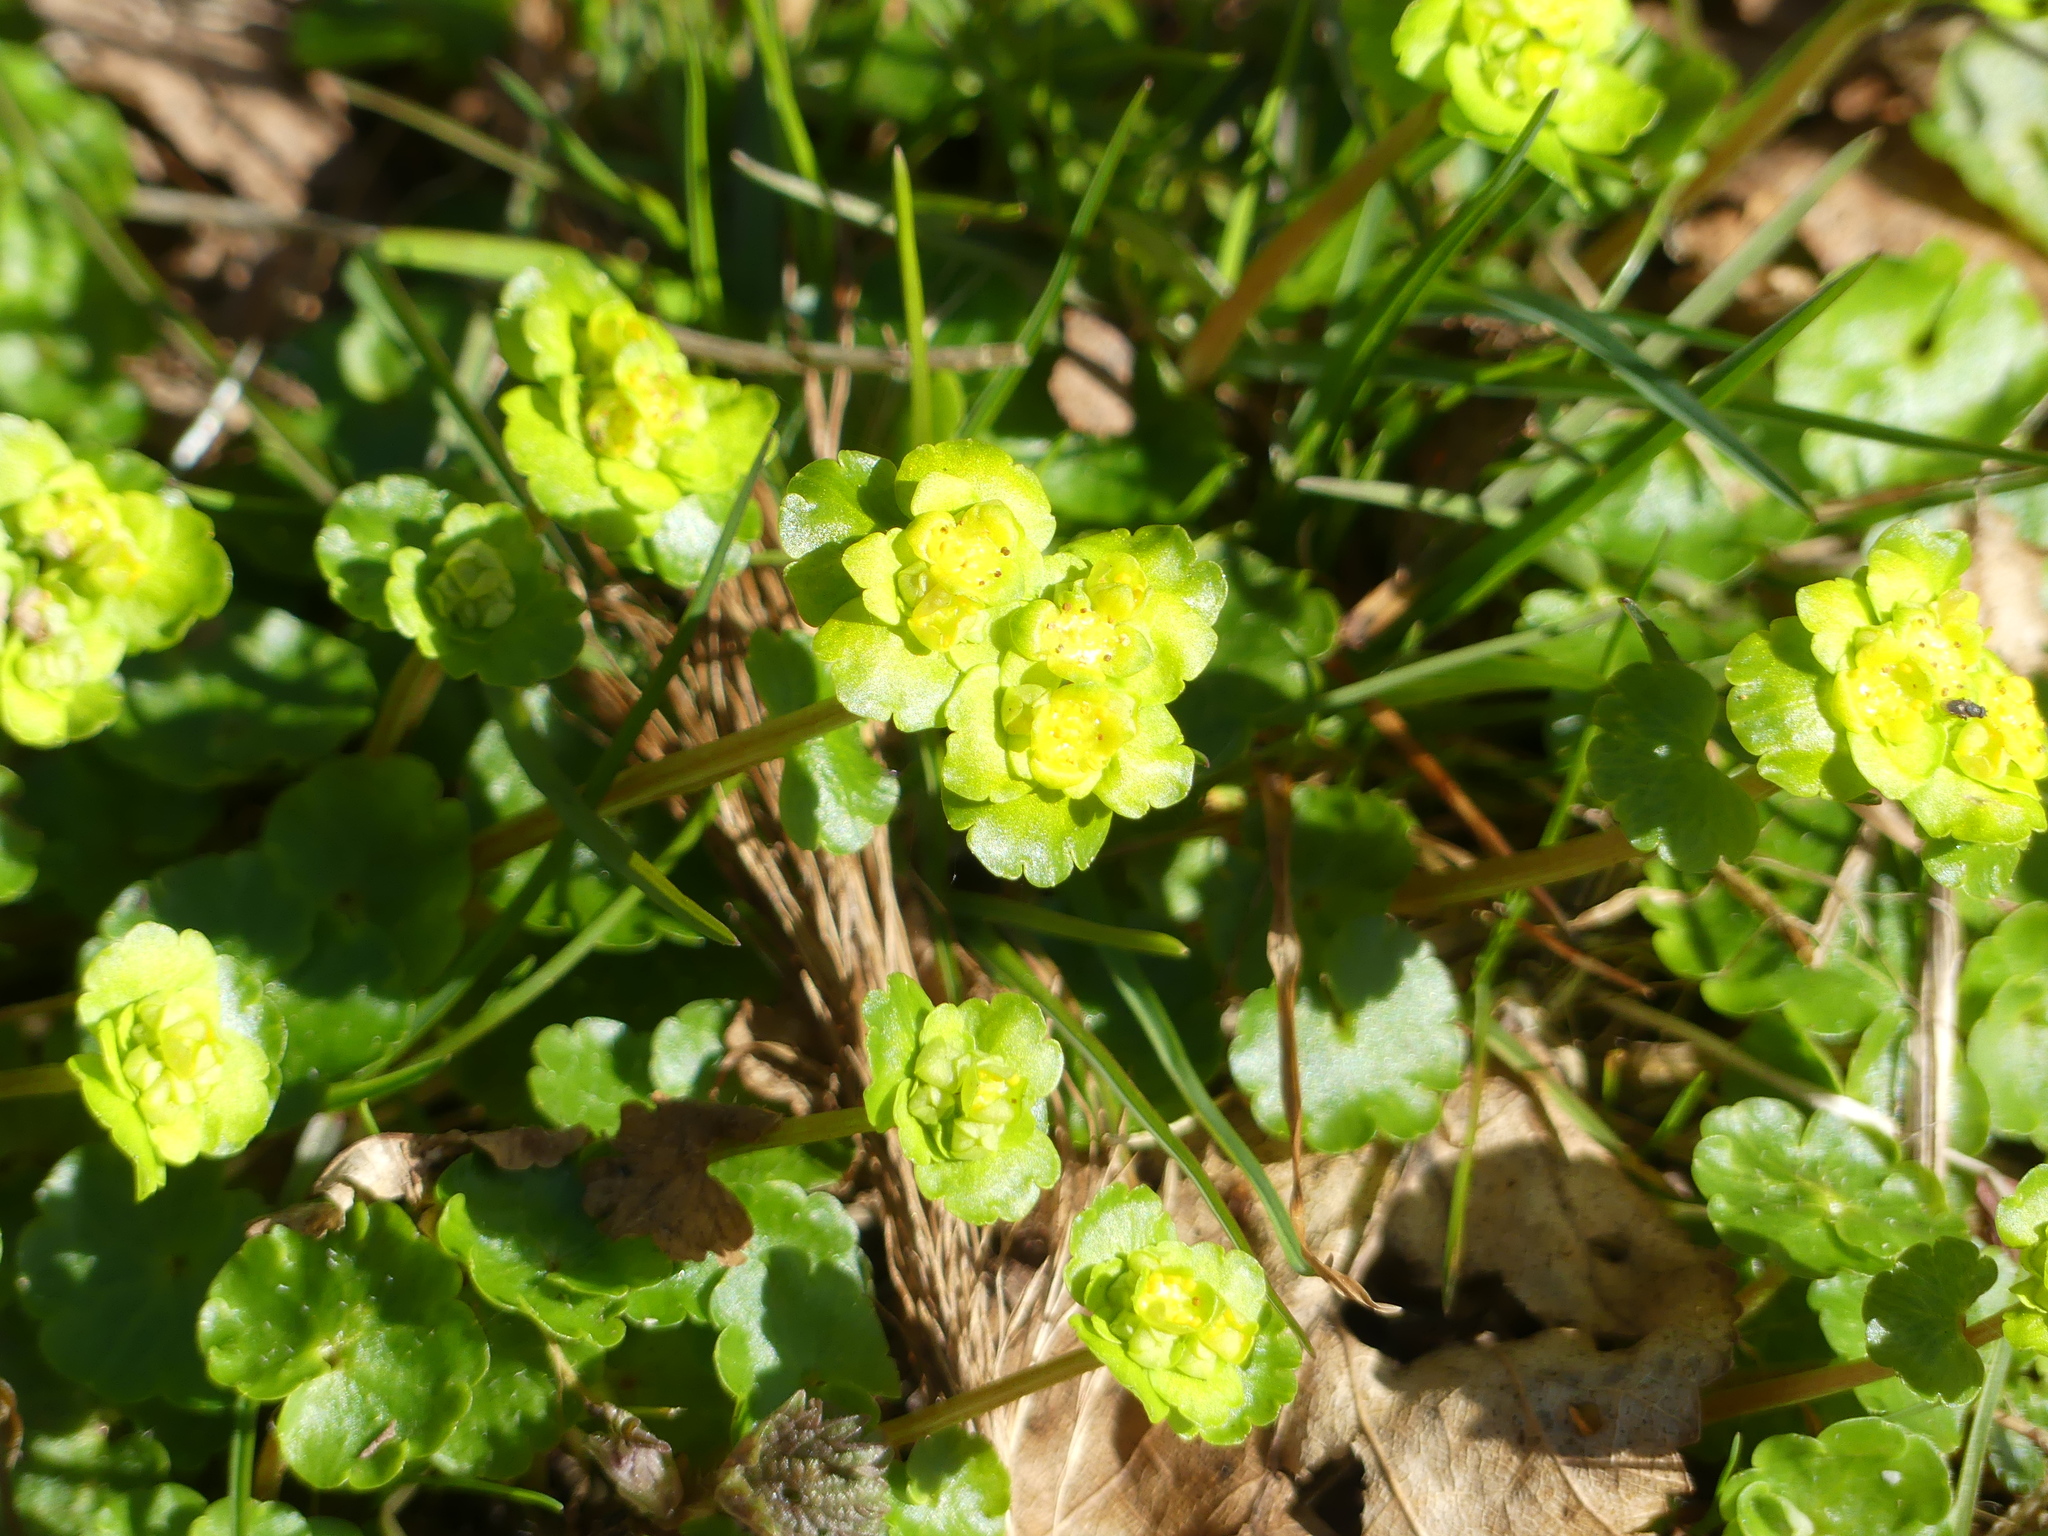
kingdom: Plantae
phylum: Tracheophyta
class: Magnoliopsida
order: Saxifragales
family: Saxifragaceae
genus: Chrysosplenium
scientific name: Chrysosplenium alternifolium
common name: Alternate-leaved golden-saxifrage
